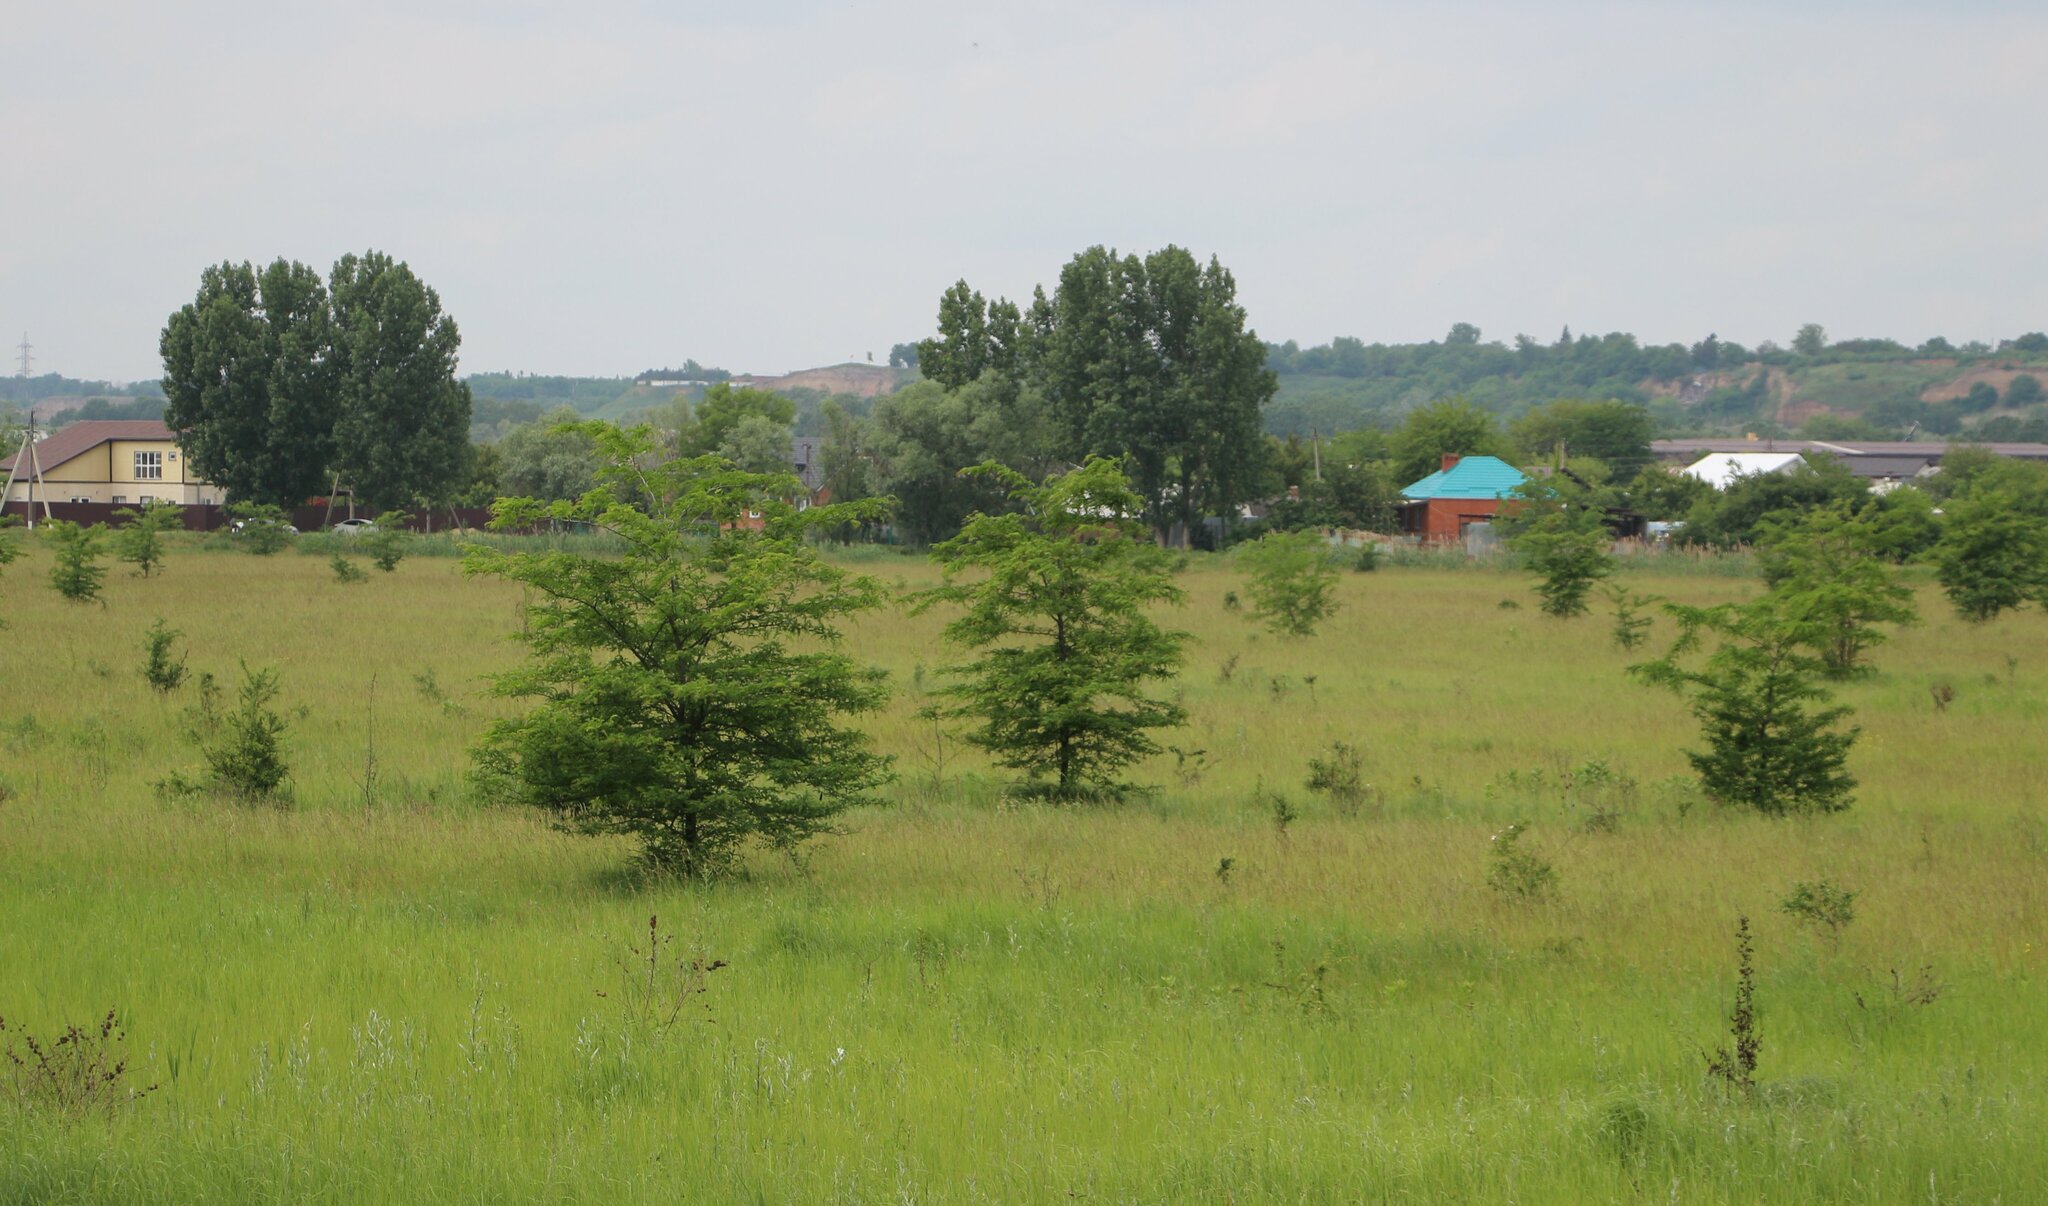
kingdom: Plantae
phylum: Tracheophyta
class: Magnoliopsida
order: Fabales
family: Fabaceae
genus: Gleditsia
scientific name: Gleditsia triacanthos
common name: Common honeylocust
